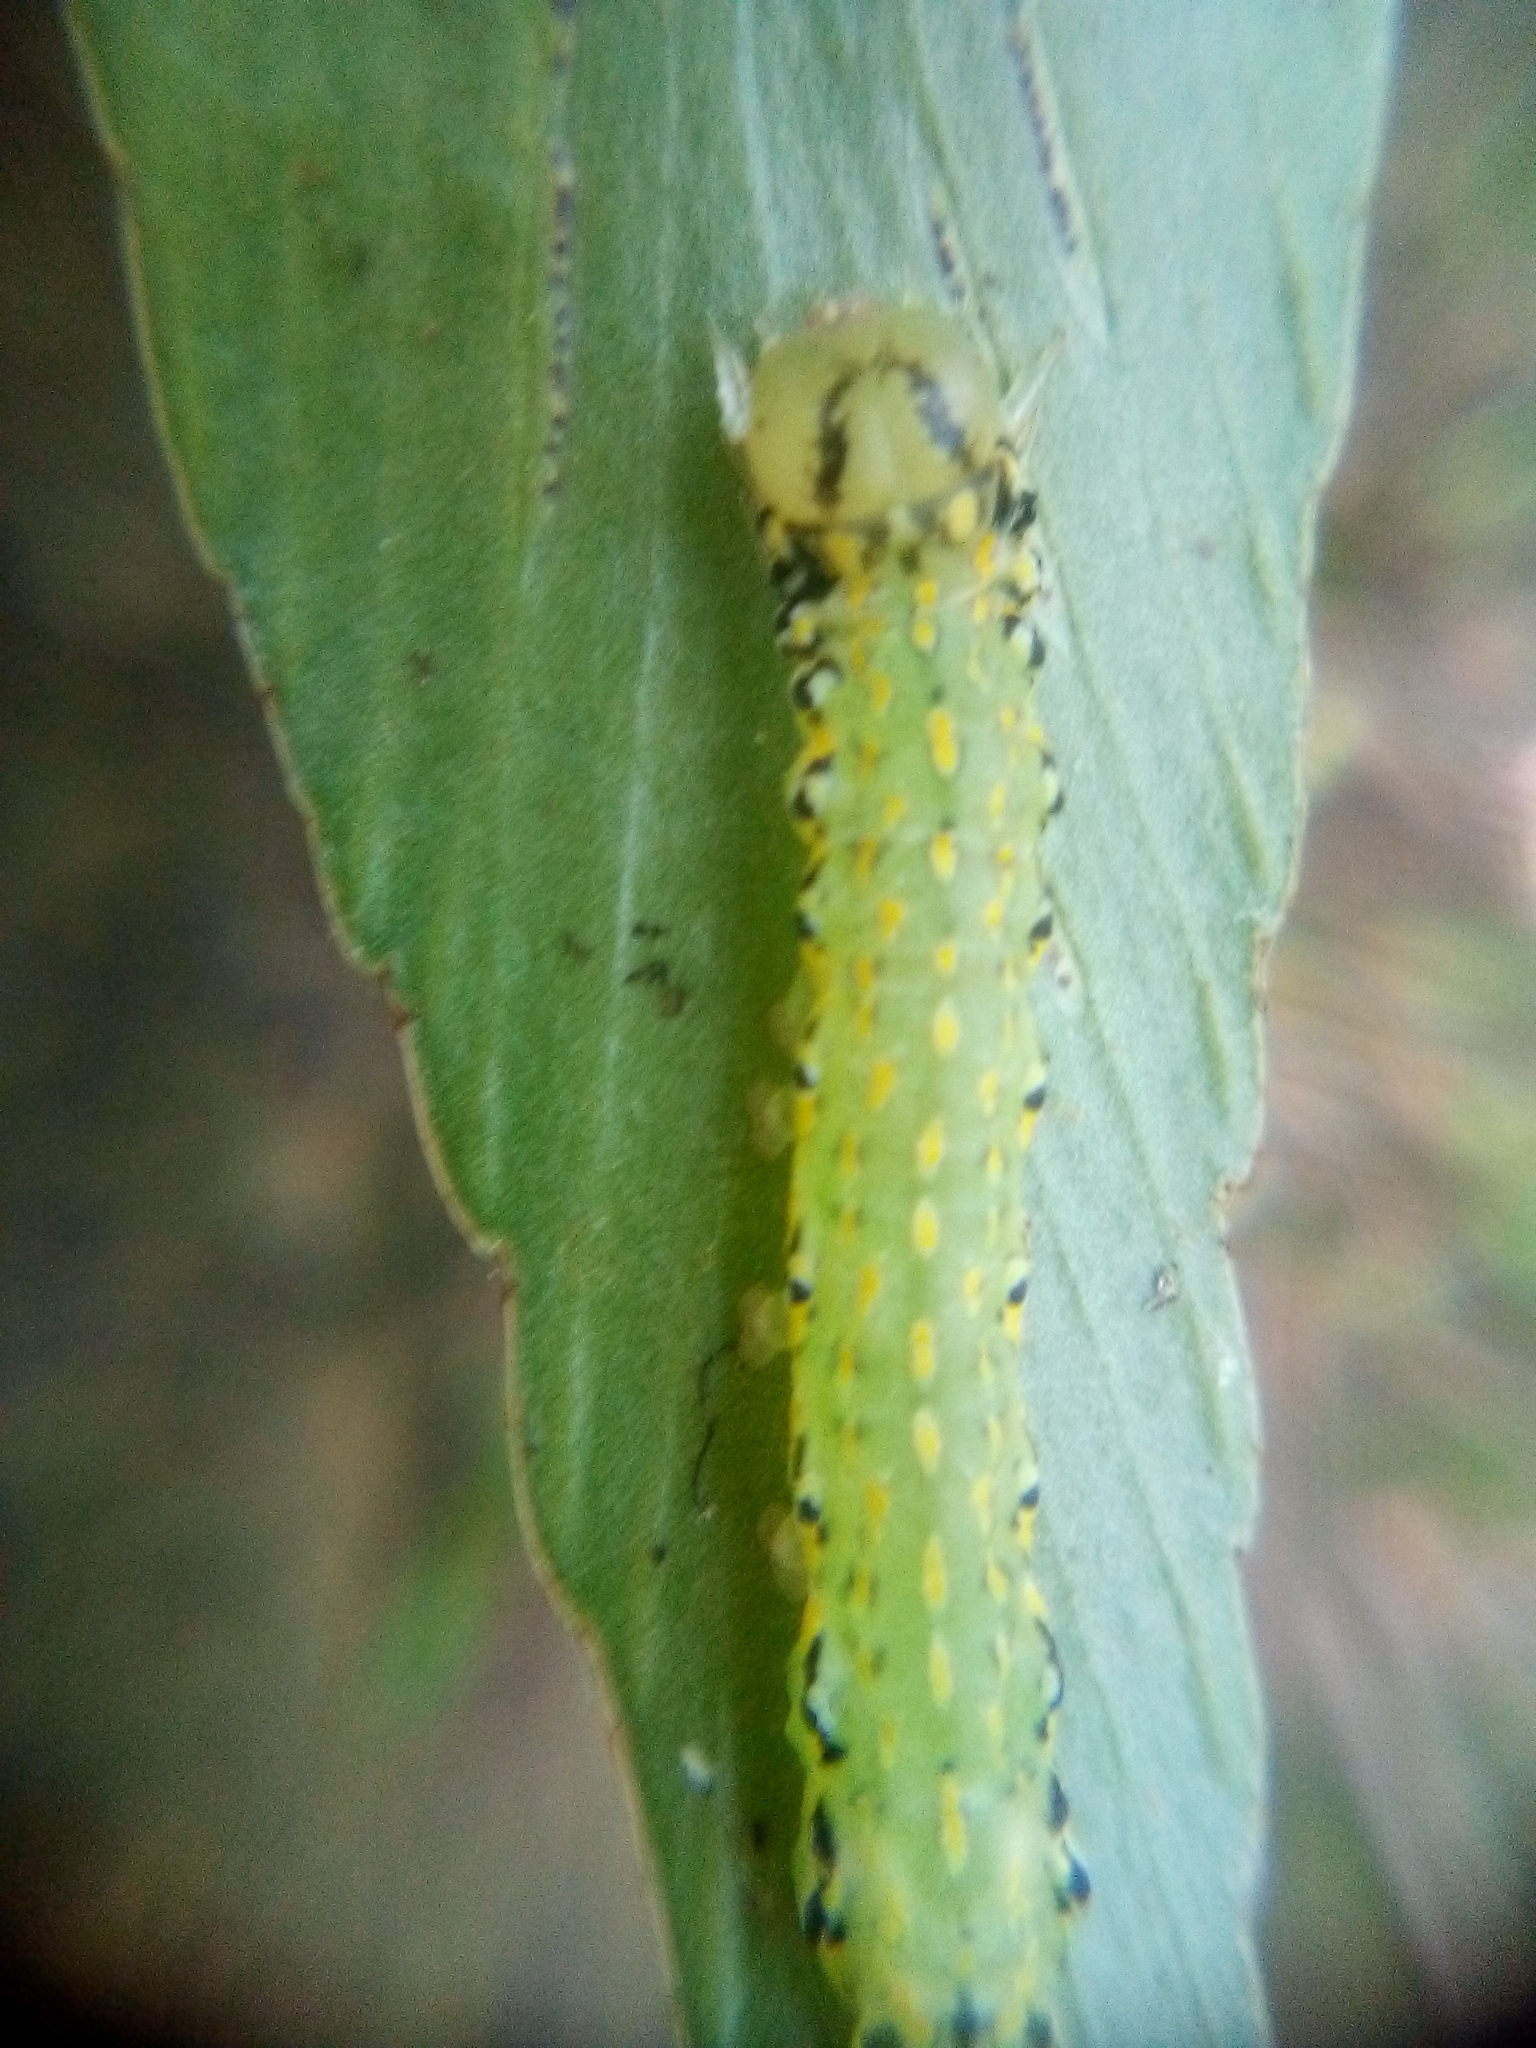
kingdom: Animalia
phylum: Arthropoda
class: Insecta
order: Lepidoptera
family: Noctuidae
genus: Austramathes
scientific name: Austramathes purpurea
